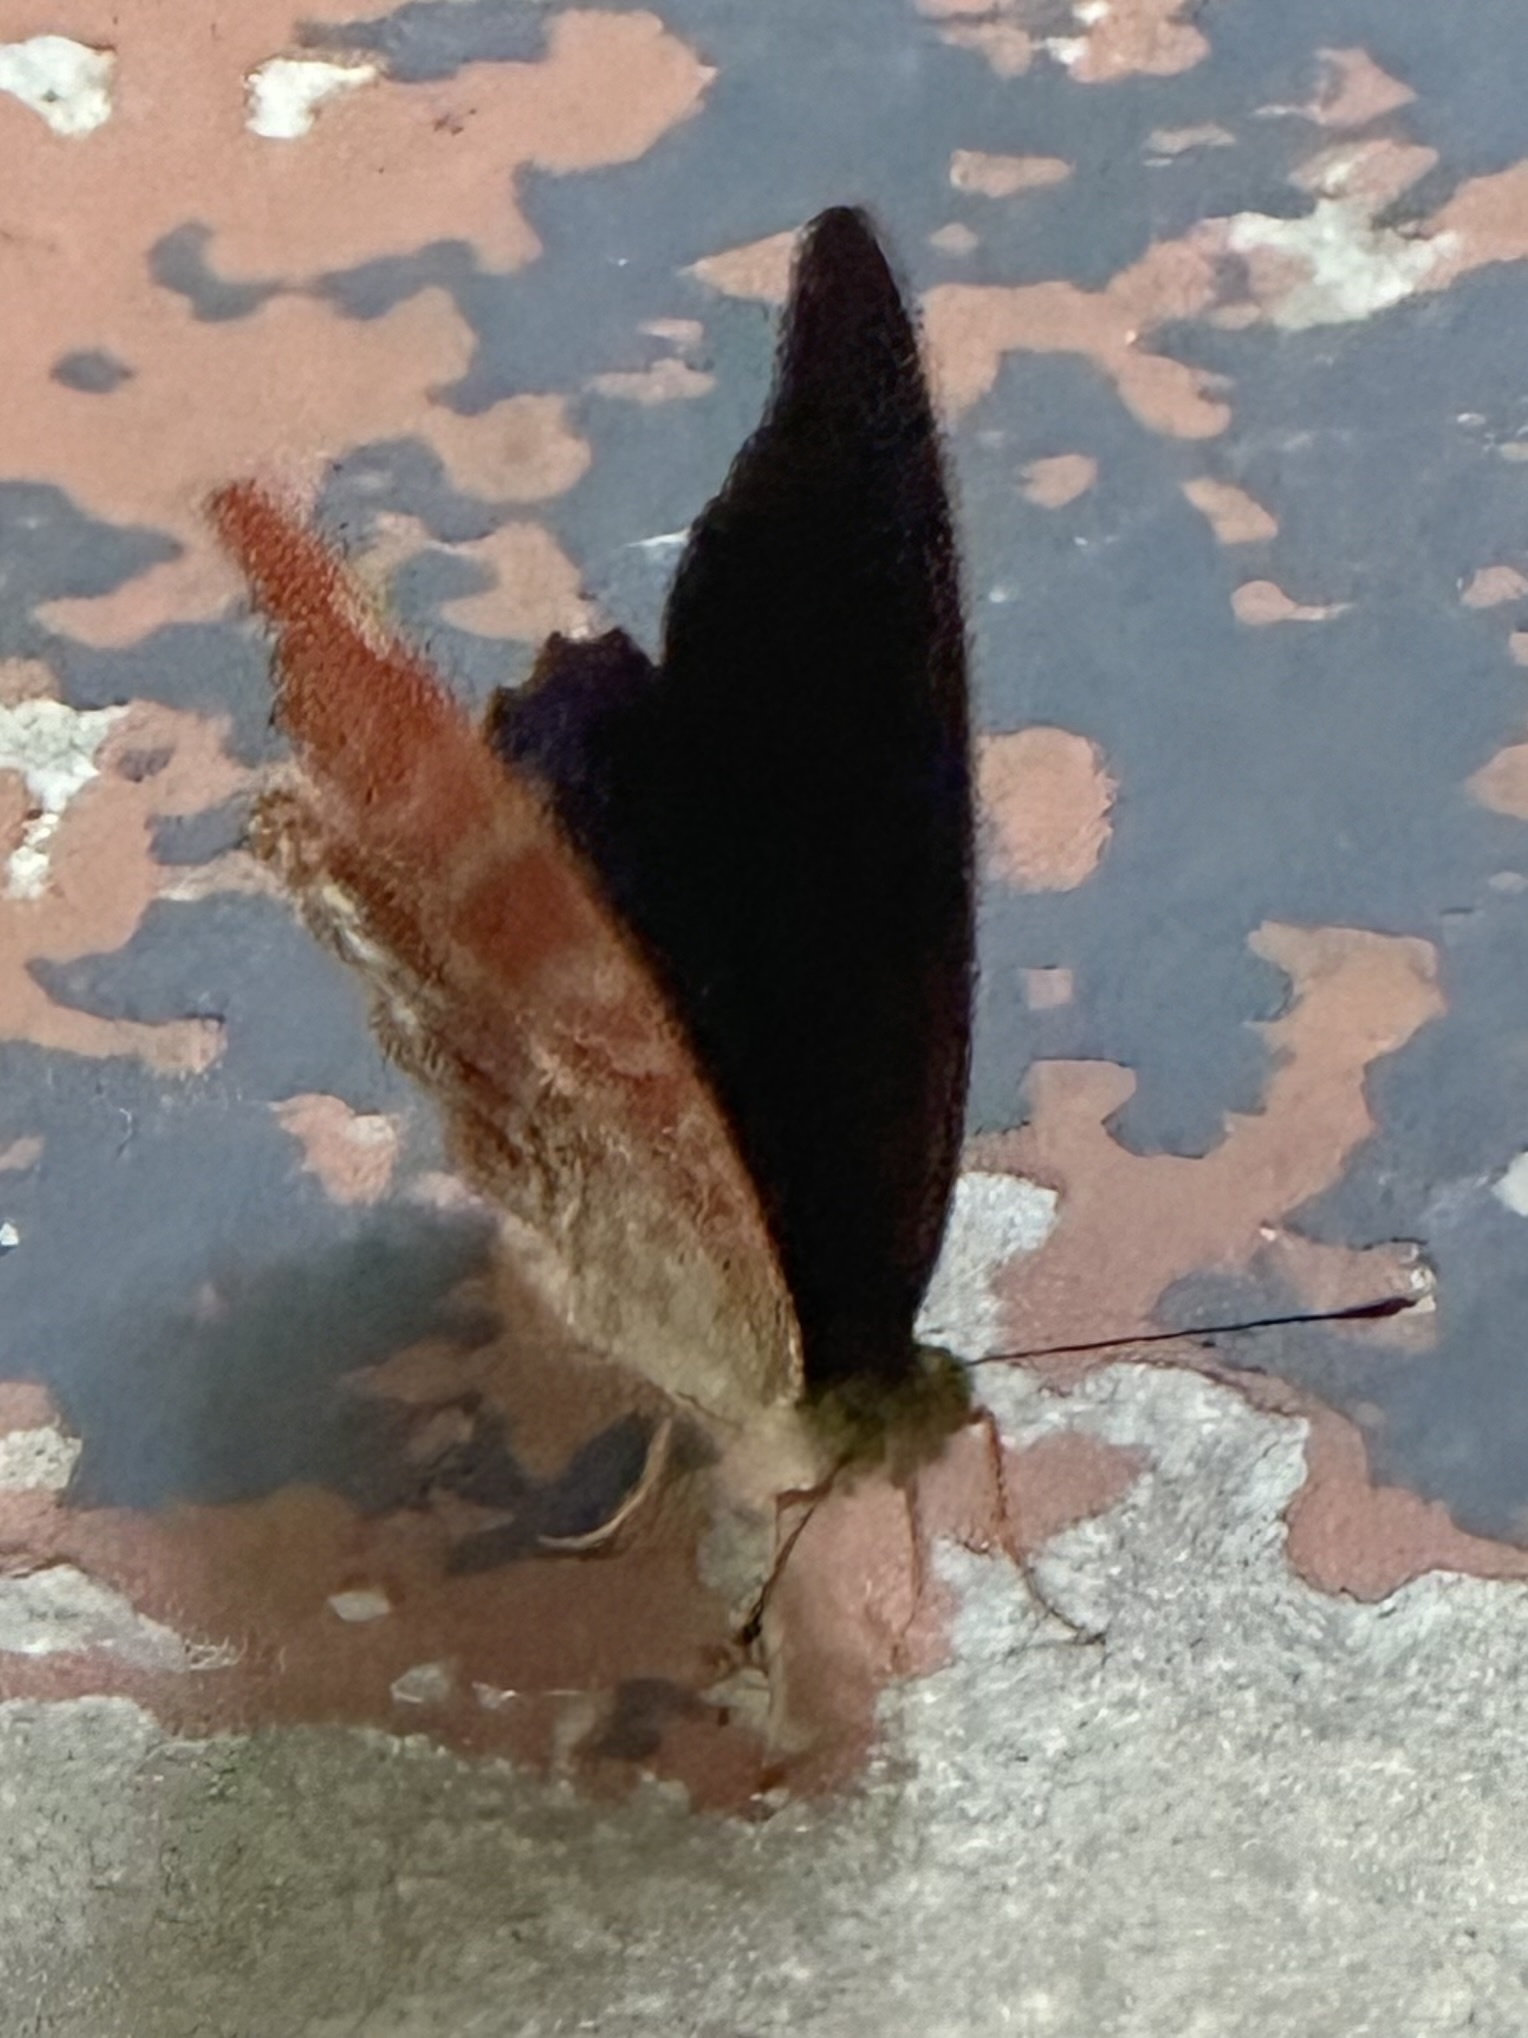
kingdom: Animalia
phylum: Arthropoda
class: Insecta
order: Lepidoptera
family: Nymphalidae
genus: Terinos
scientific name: Terinos terpander
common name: Royal assyrian
